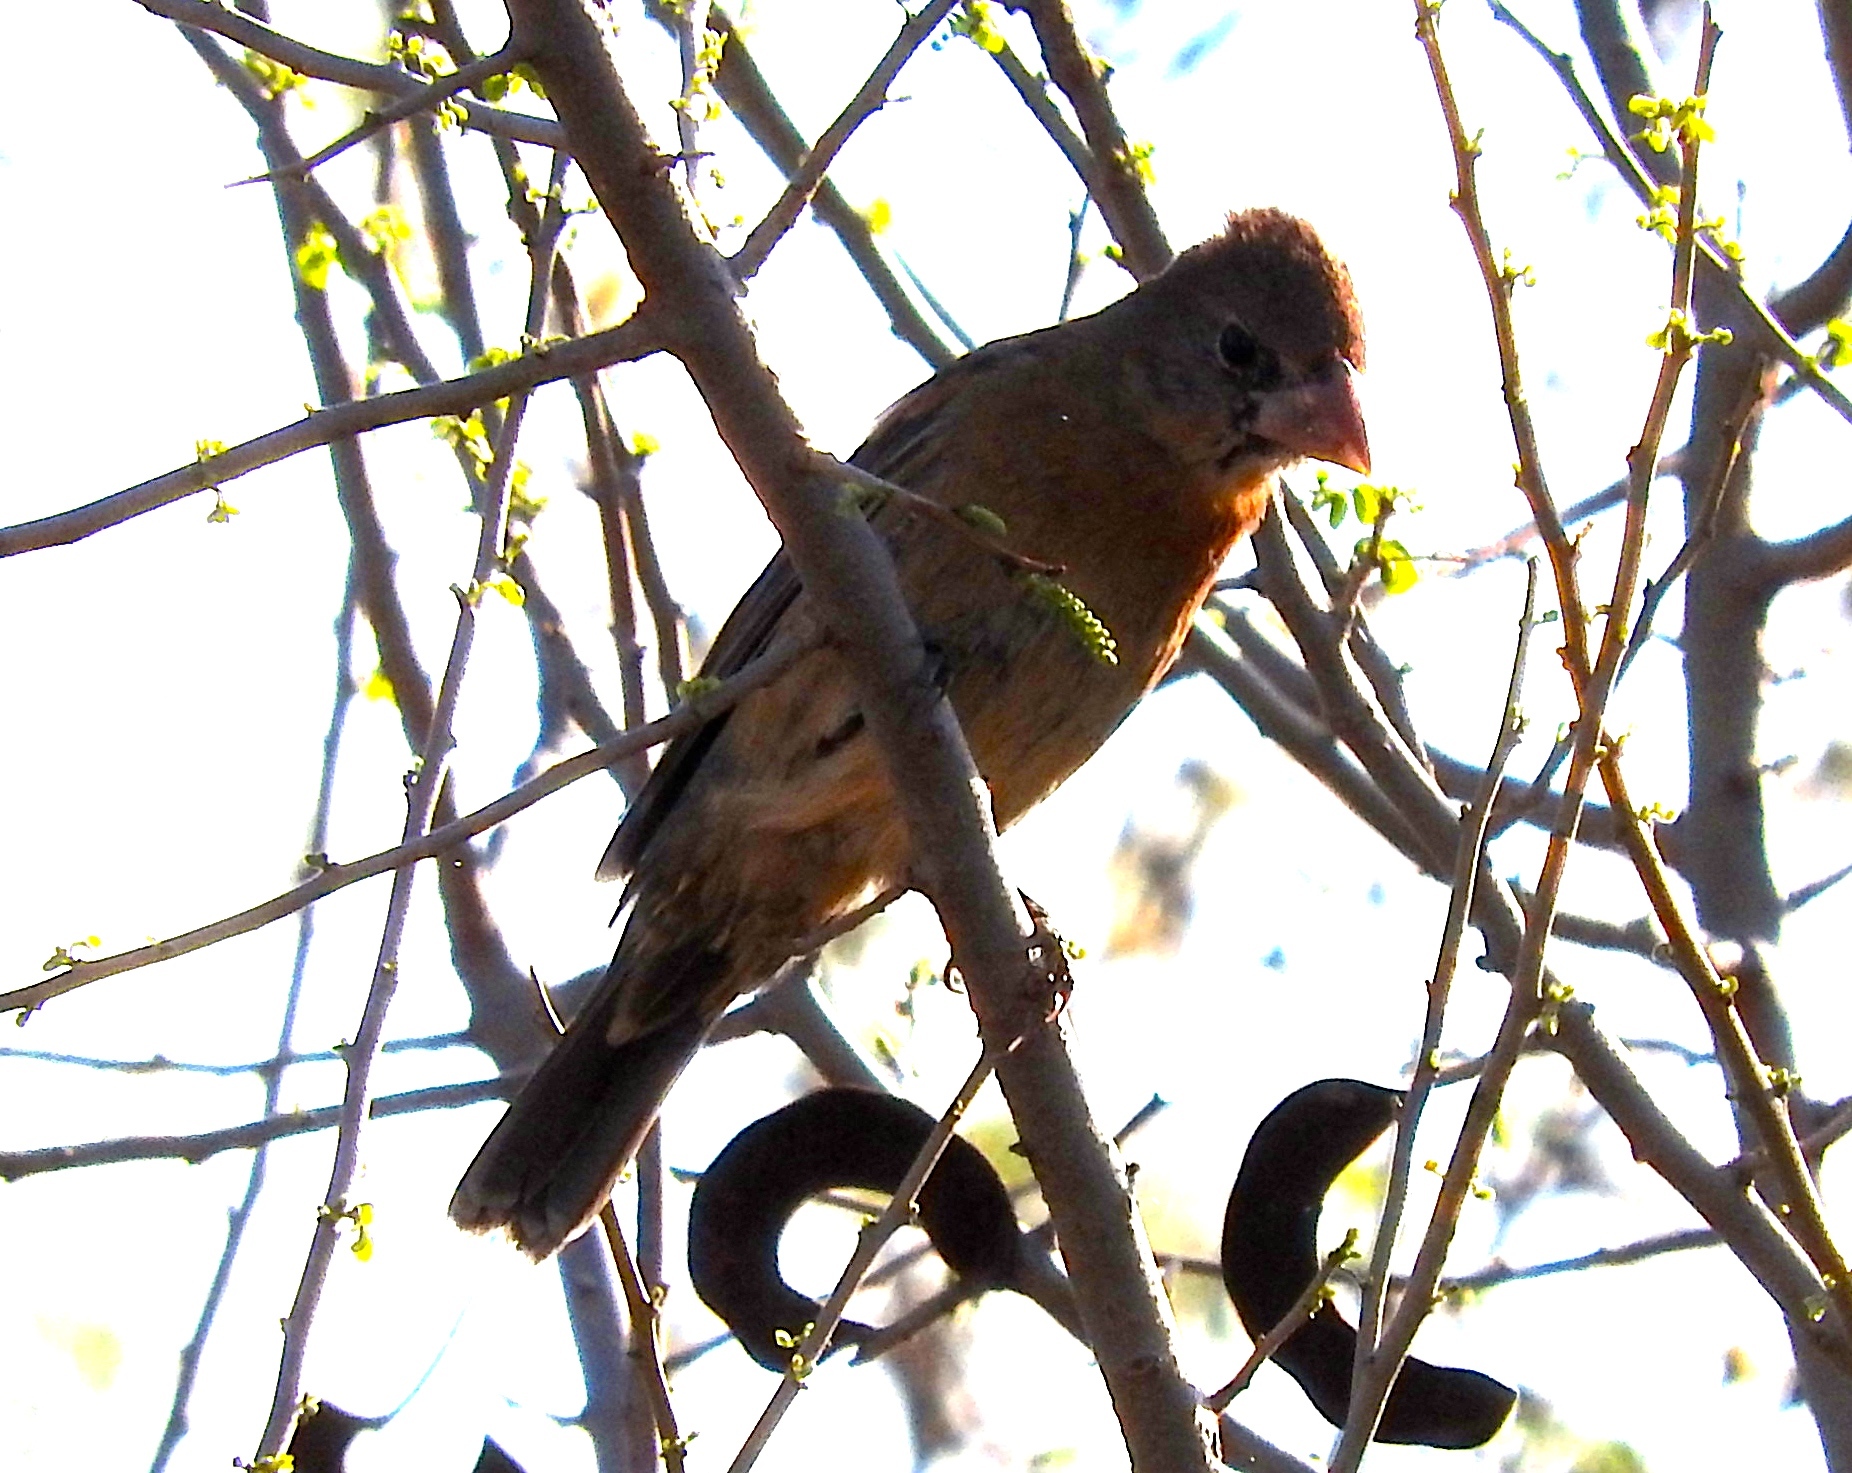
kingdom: Animalia
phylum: Chordata
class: Aves
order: Passeriformes
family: Cardinalidae
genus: Passerina
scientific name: Passerina caerulea
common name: Blue grosbeak
